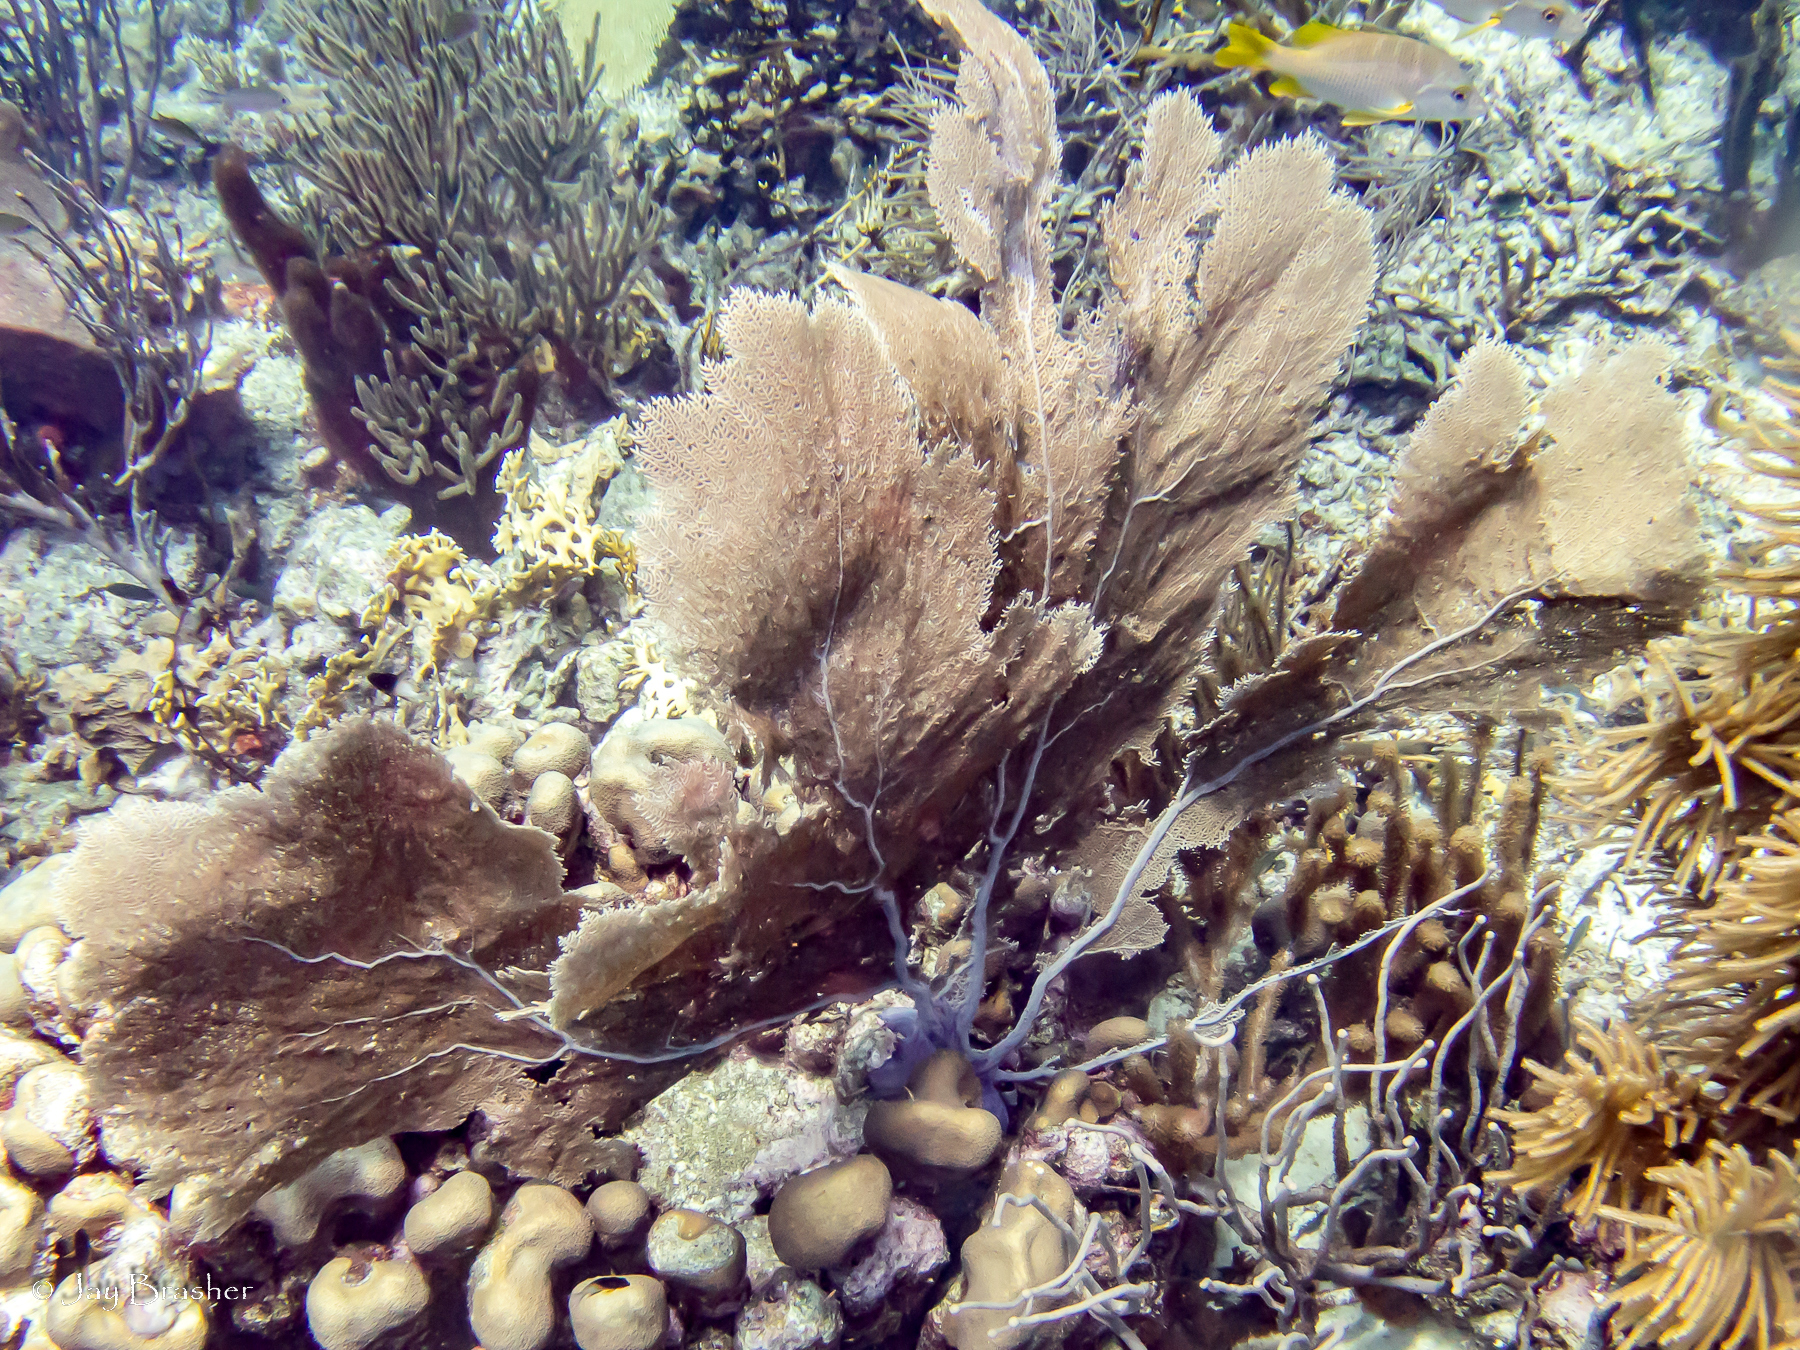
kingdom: Animalia
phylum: Chordata
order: Perciformes
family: Lutjanidae
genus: Lutjanus
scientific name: Lutjanus apodus
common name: Schoolmaster
